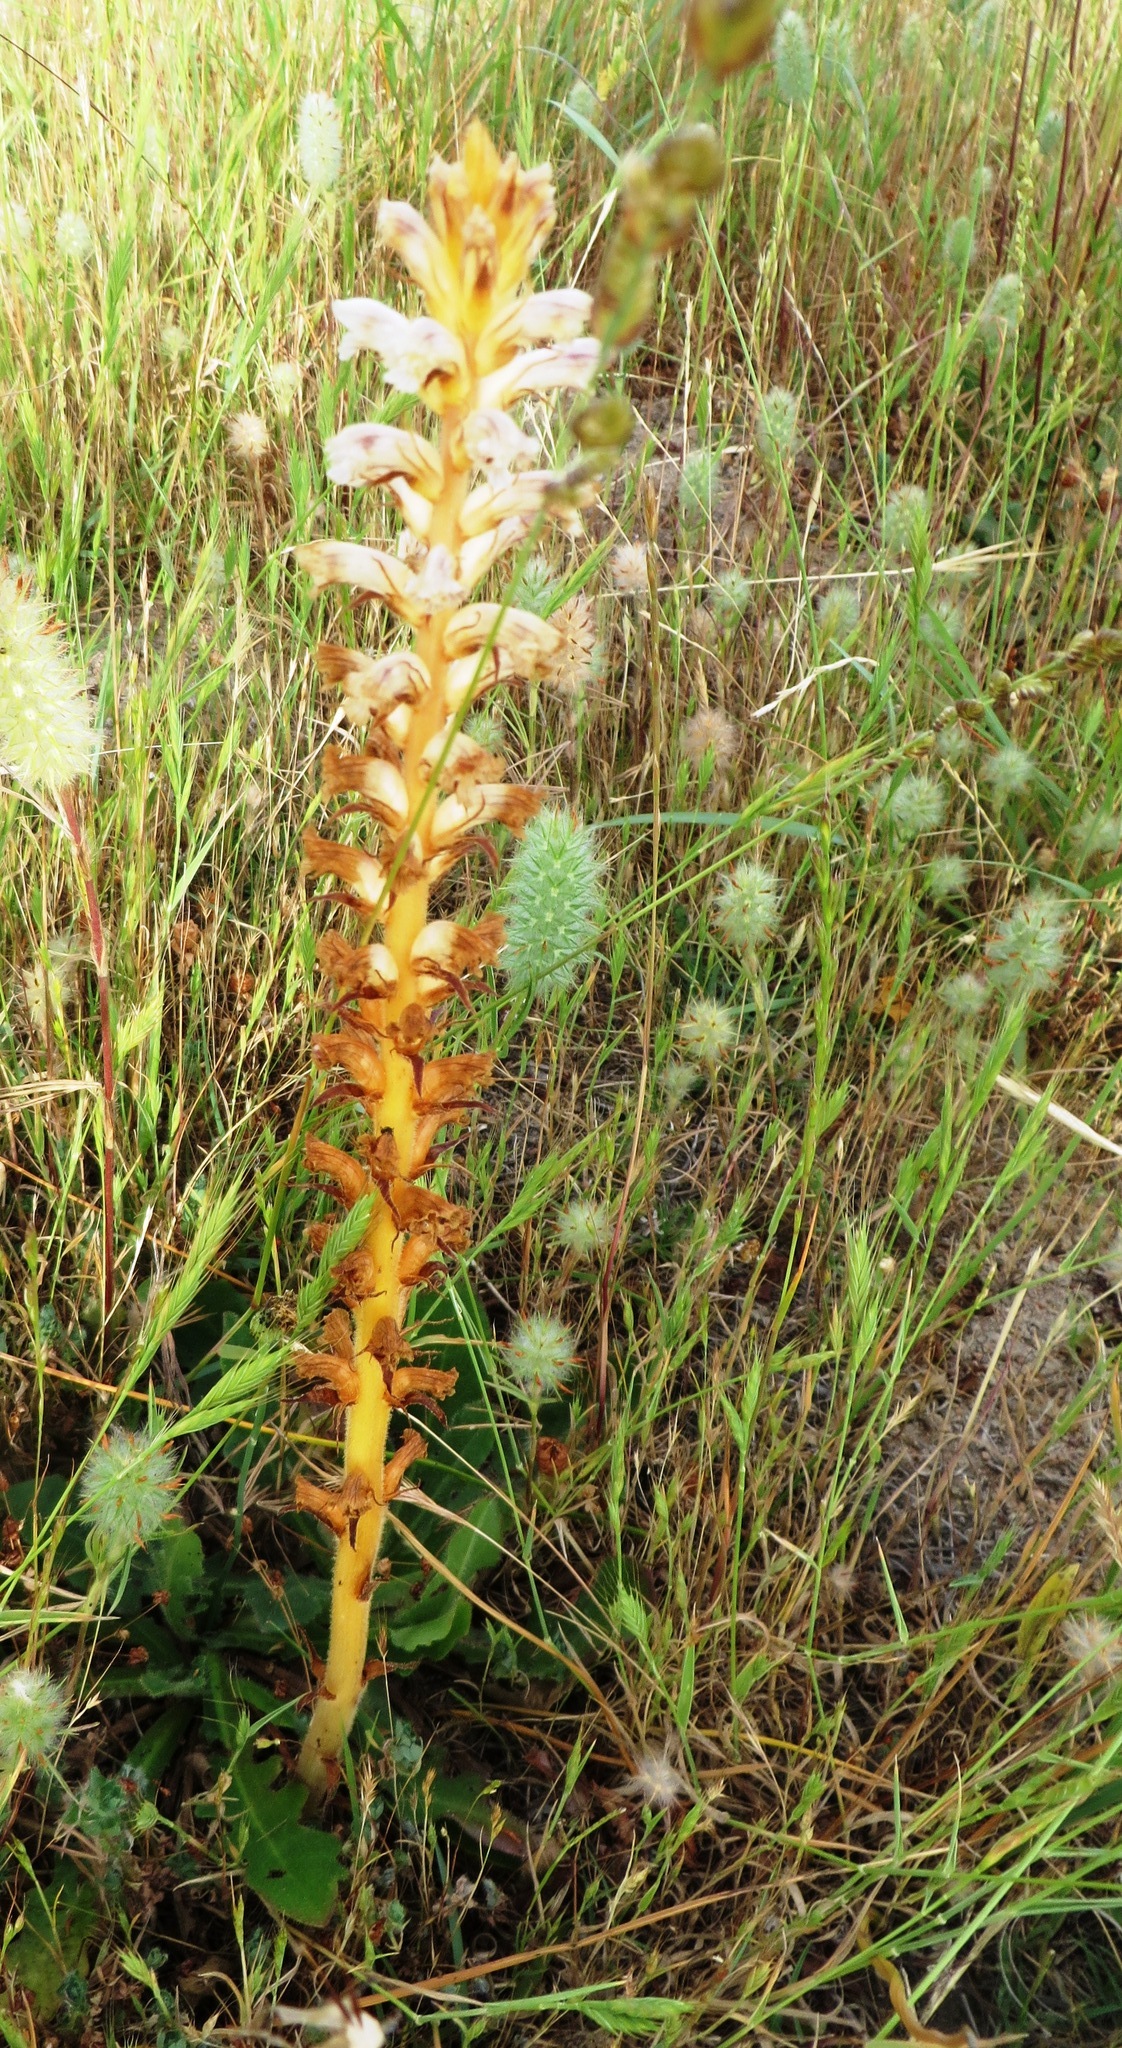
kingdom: Plantae
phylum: Tracheophyta
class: Magnoliopsida
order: Lamiales
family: Orobanchaceae
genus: Orobanche
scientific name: Orobanche minor
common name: Common broomrape
